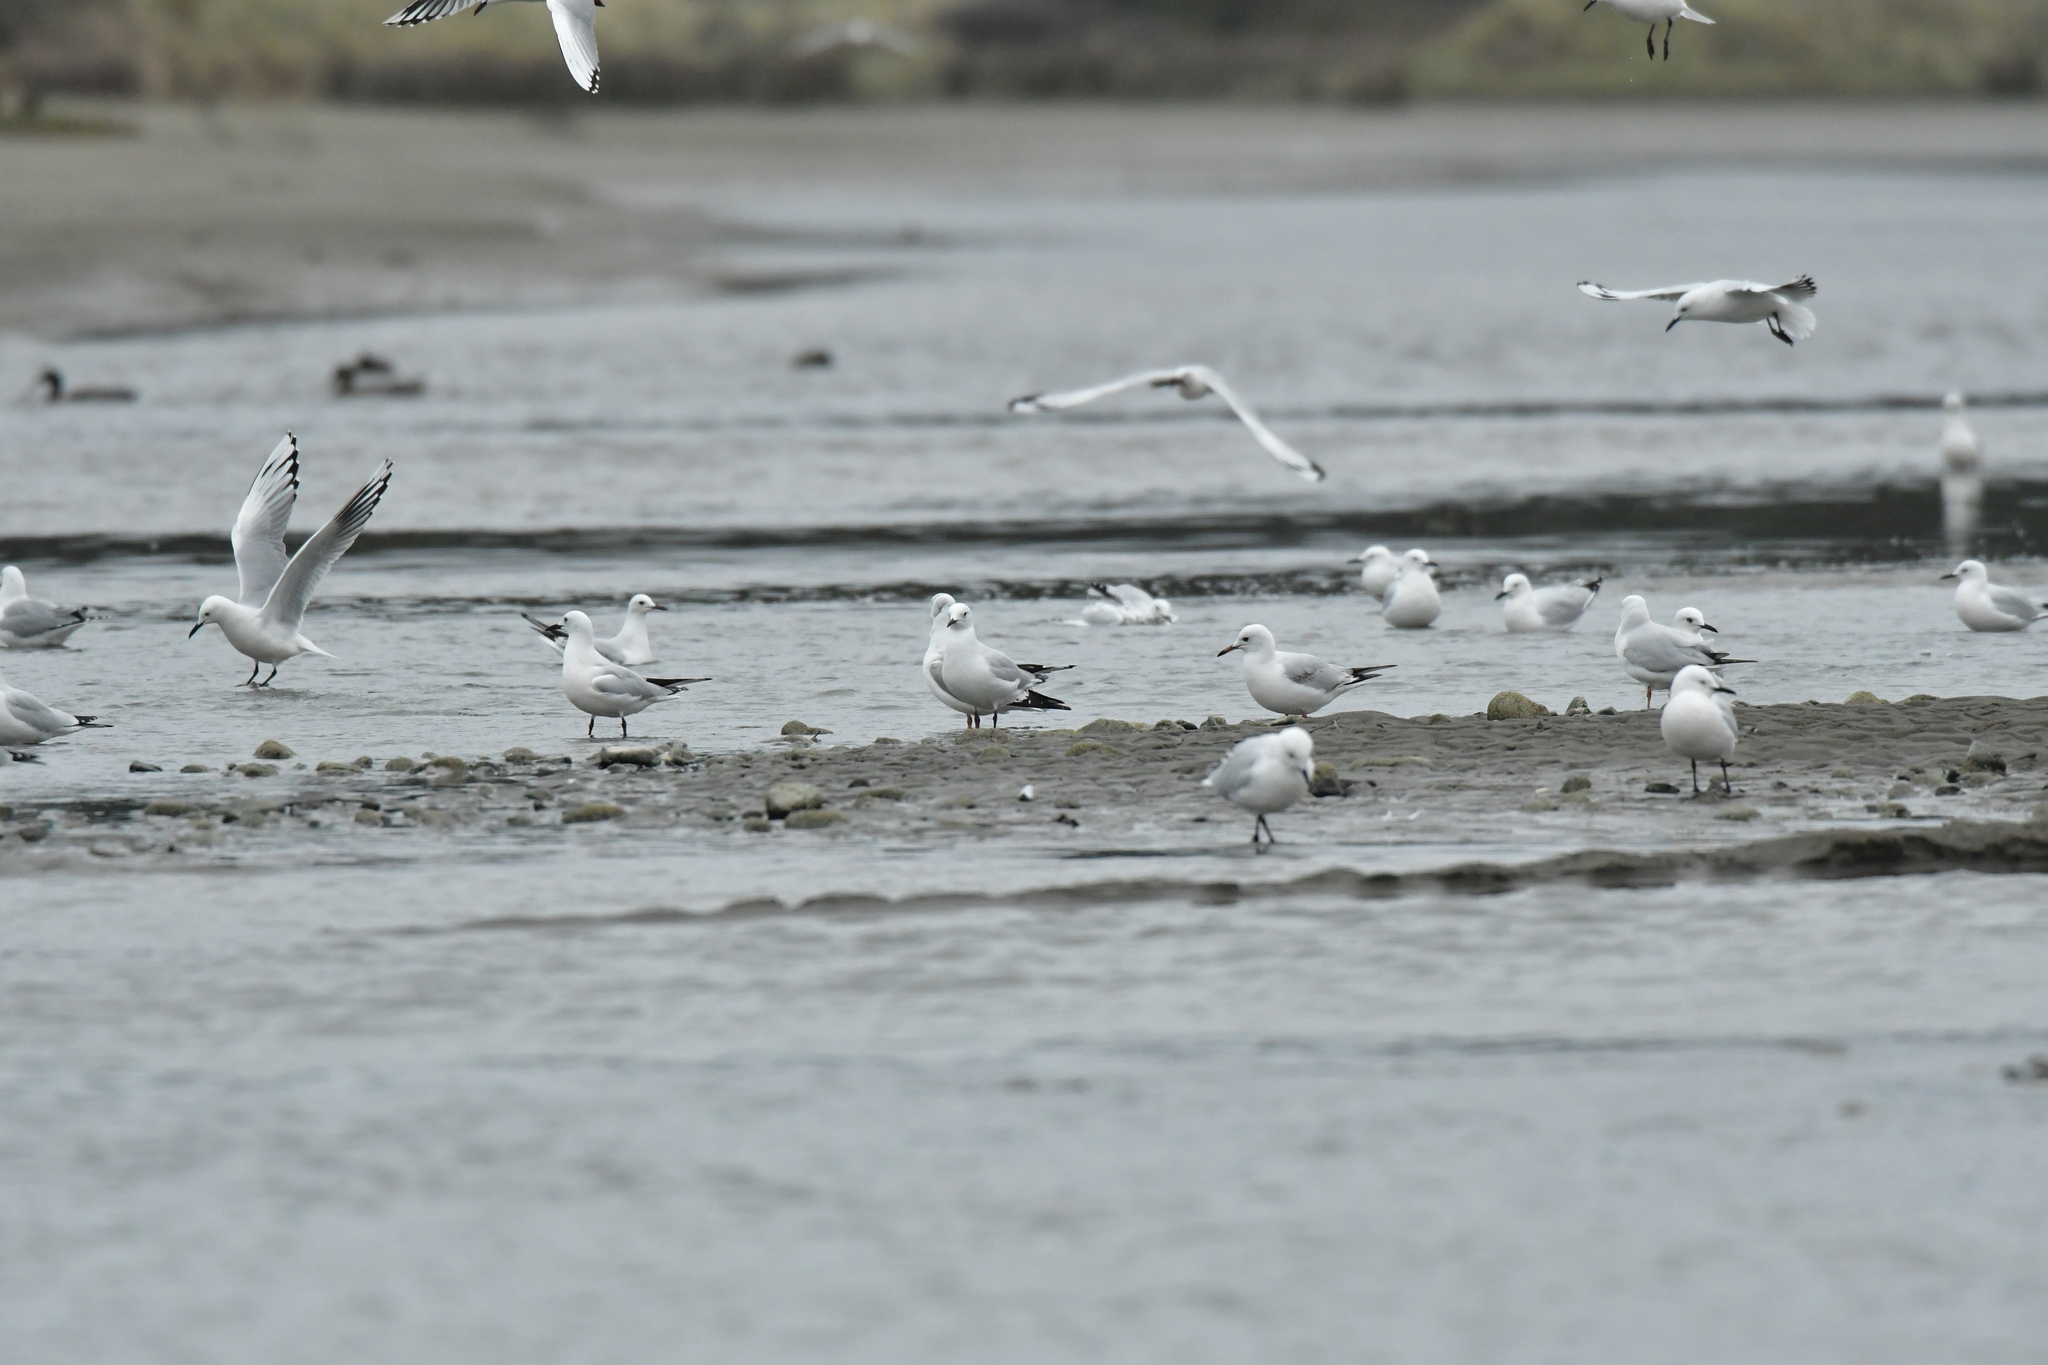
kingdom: Animalia
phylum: Chordata
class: Aves
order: Charadriiformes
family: Laridae
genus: Chroicocephalus
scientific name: Chroicocephalus bulleri
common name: Black-billed gull
